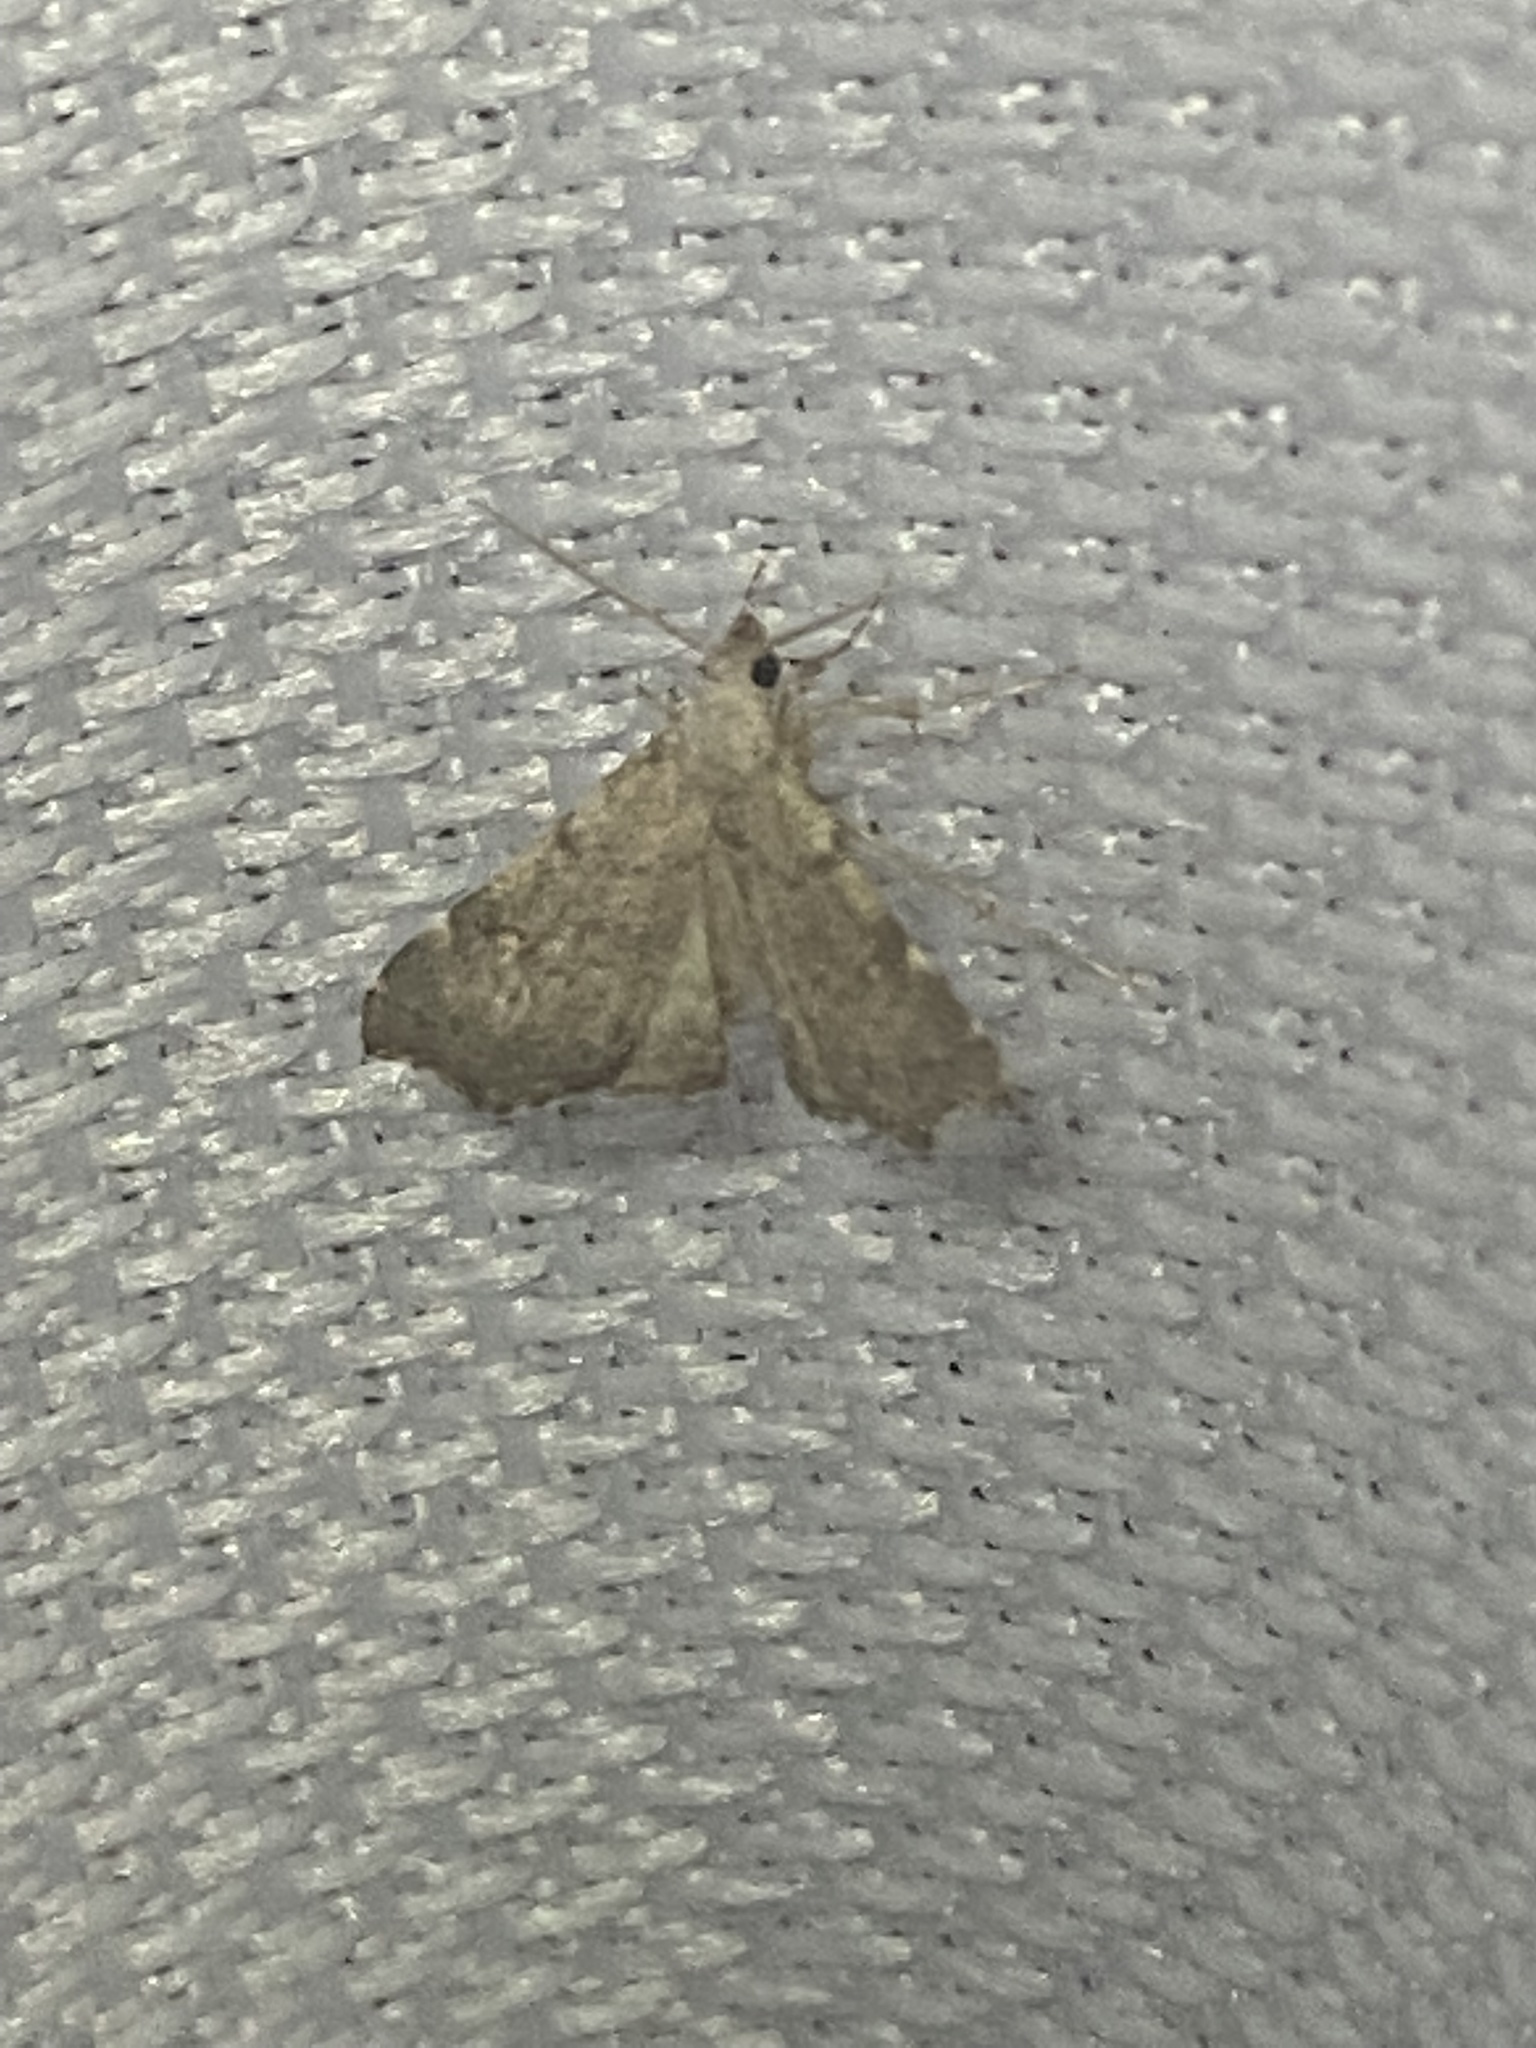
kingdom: Animalia
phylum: Arthropoda
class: Insecta
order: Lepidoptera
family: Erebidae
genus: Redectis
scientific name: Redectis pygmaea
